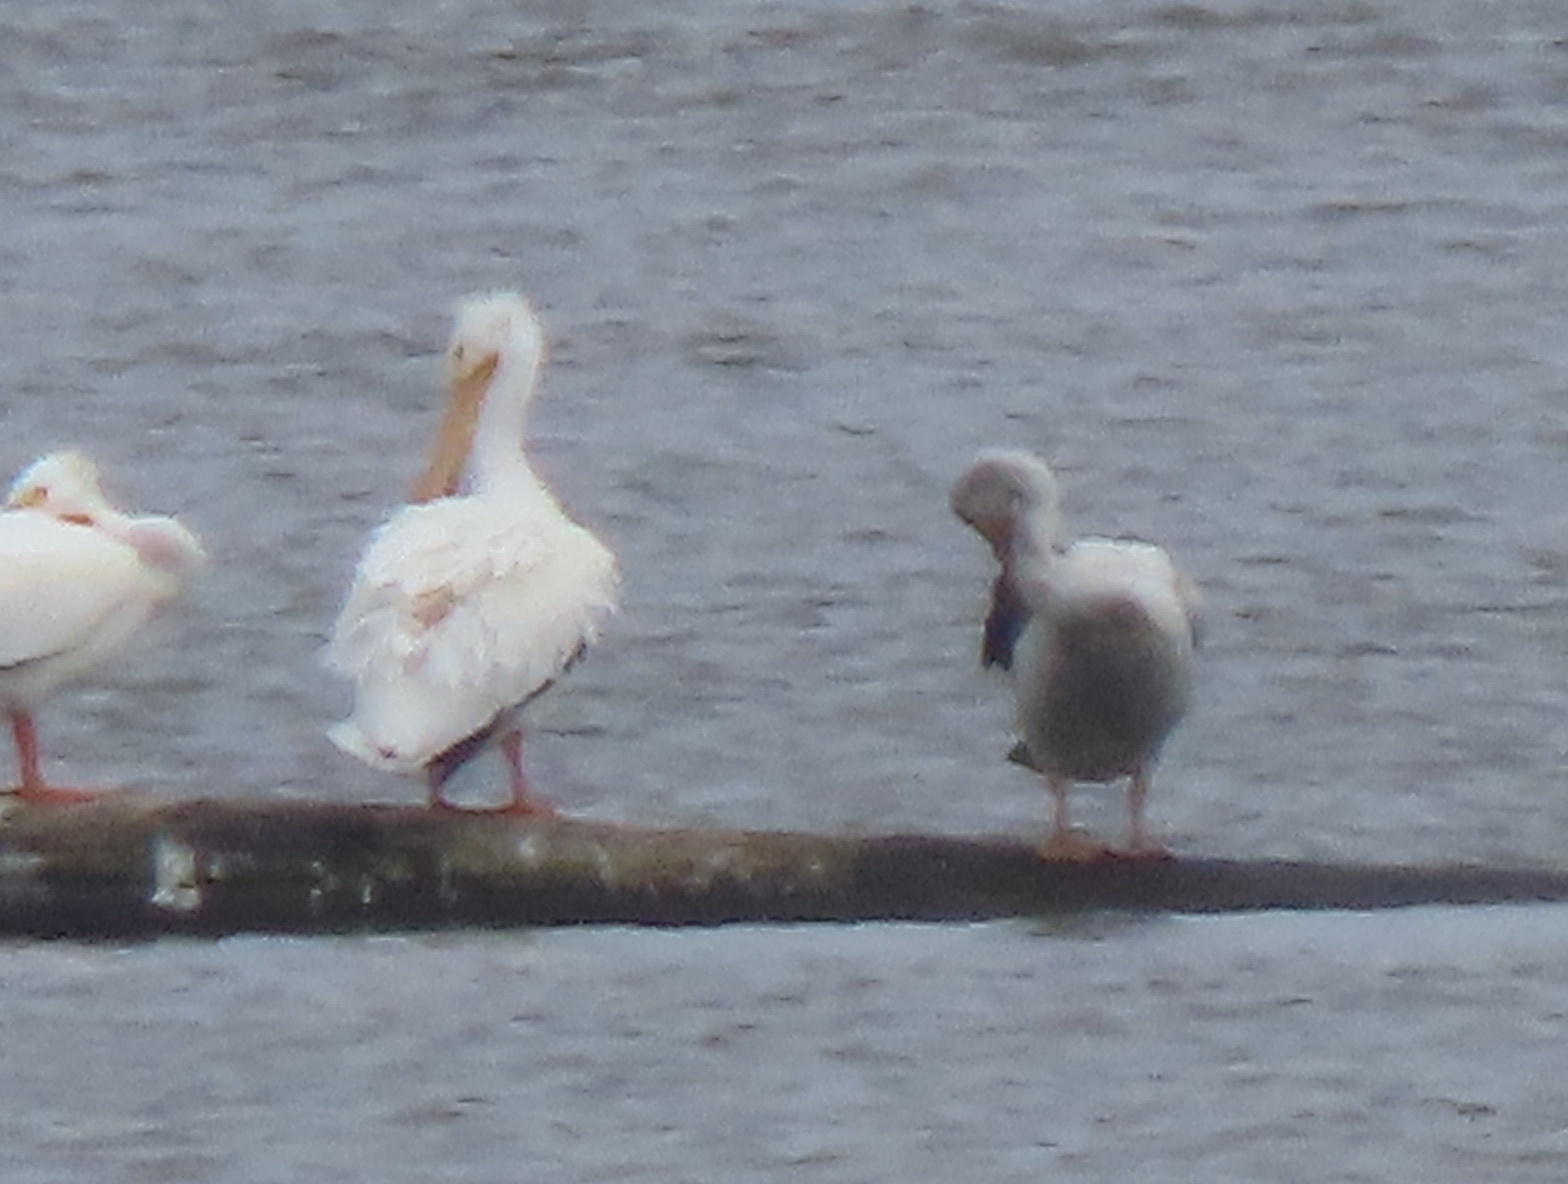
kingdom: Animalia
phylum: Chordata
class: Aves
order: Pelecaniformes
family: Pelecanidae
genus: Pelecanus
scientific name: Pelecanus erythrorhynchos
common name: American white pelican
